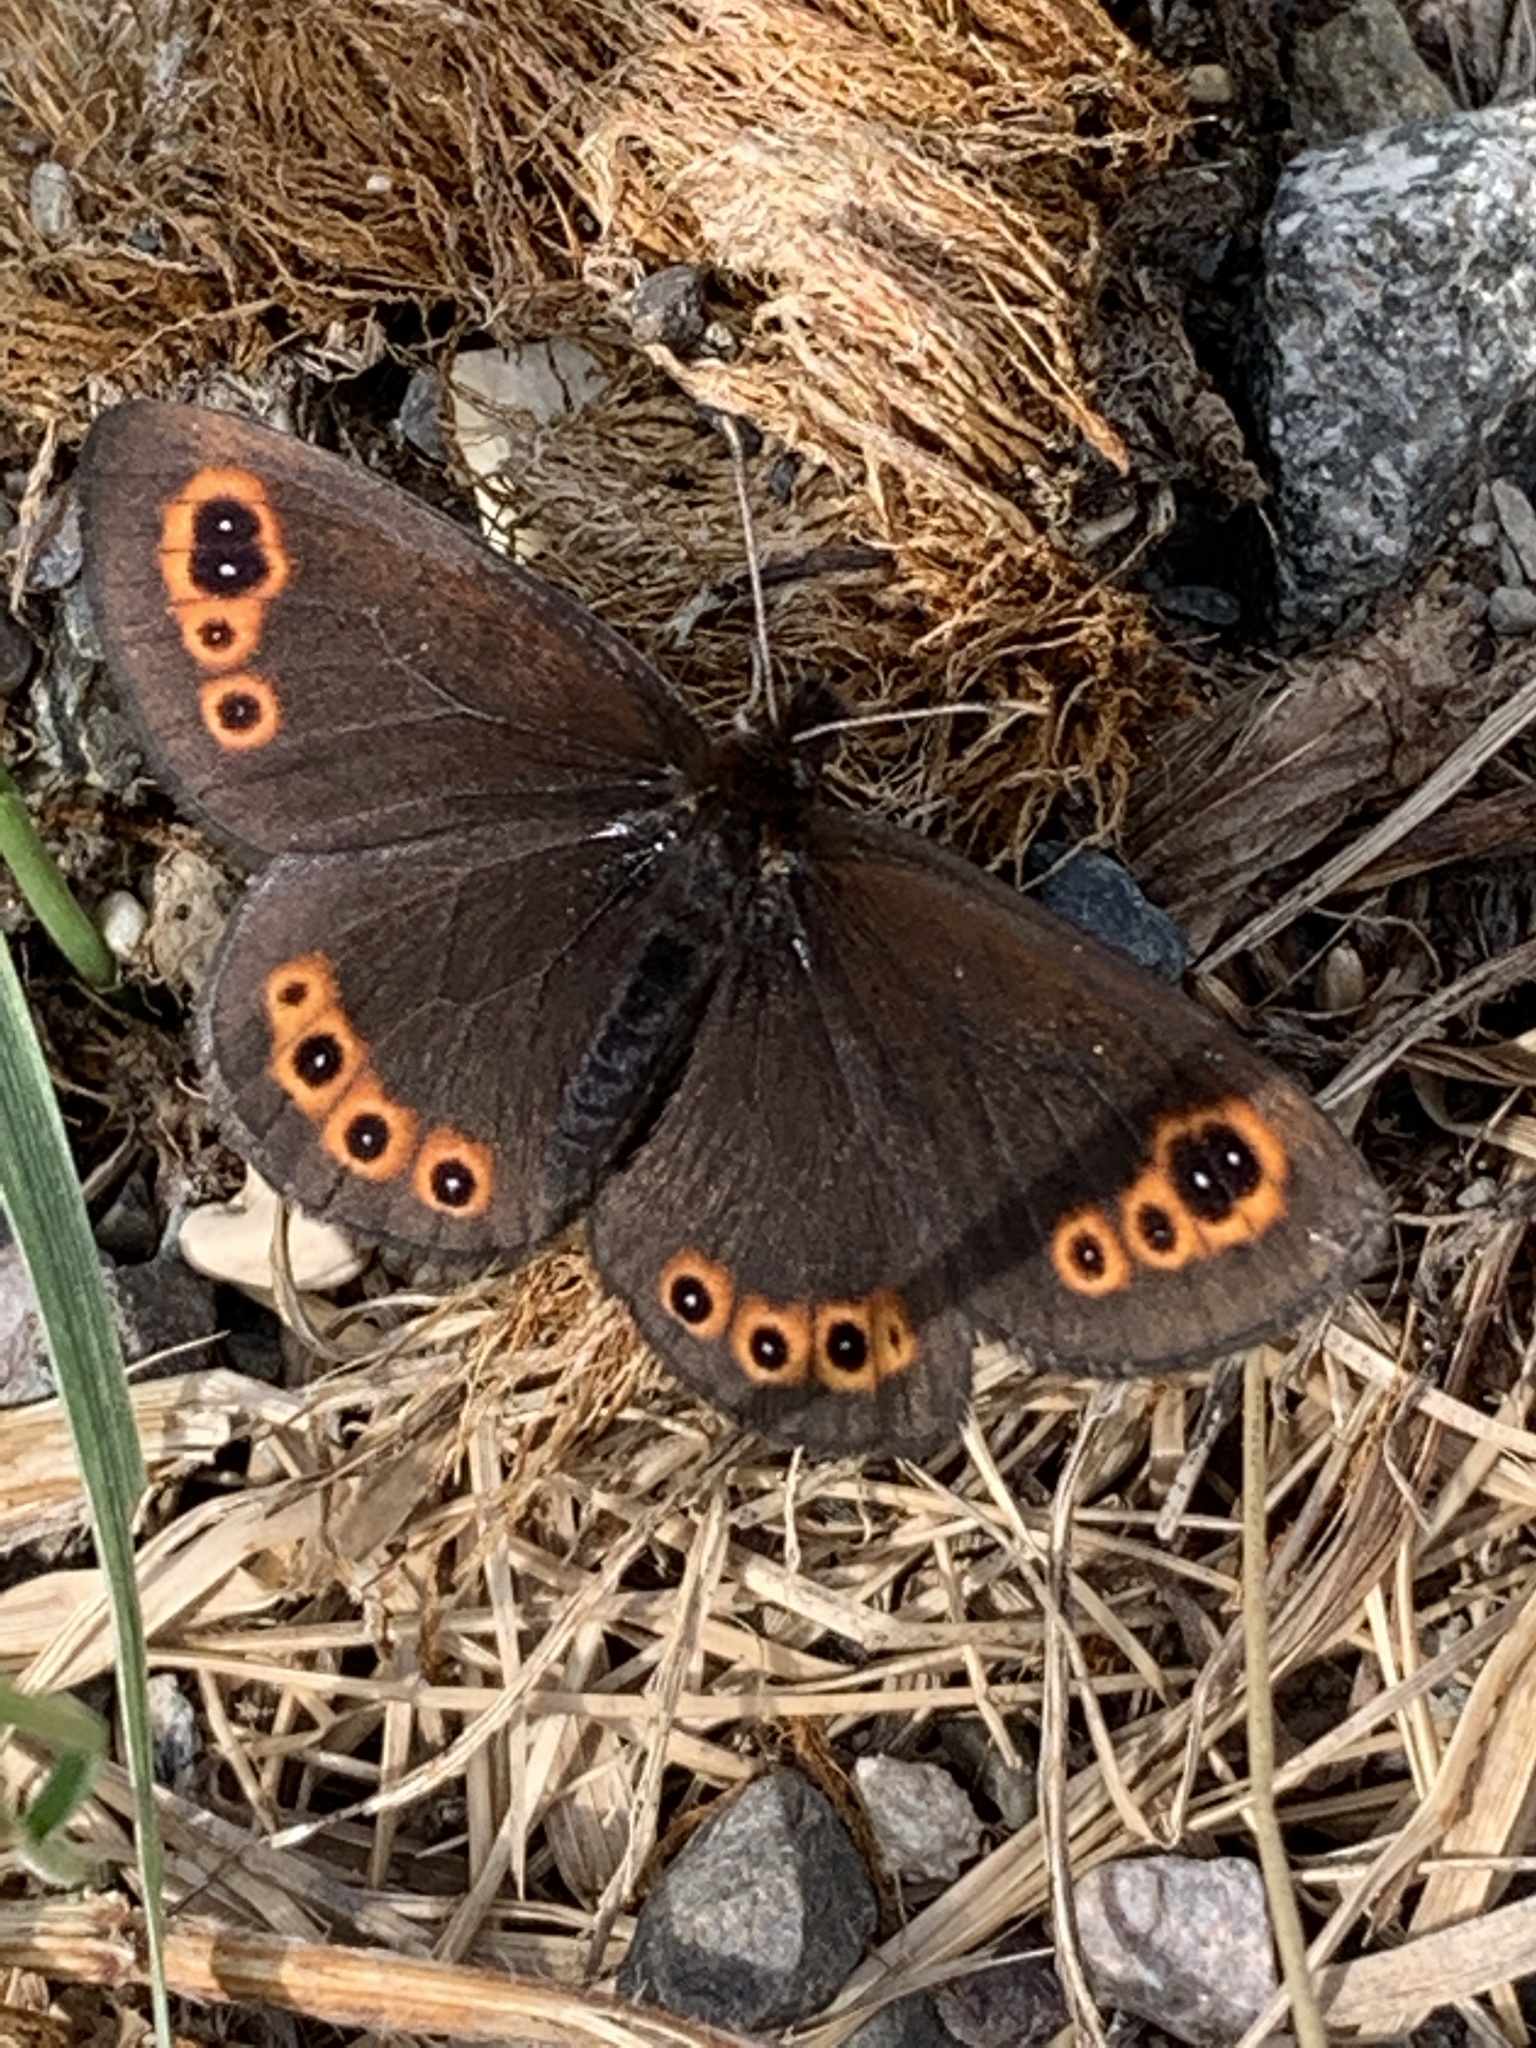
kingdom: Animalia
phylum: Arthropoda
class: Insecta
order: Lepidoptera
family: Nymphalidae
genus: Erebia
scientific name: Erebia epipsodea
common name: Common alpine
